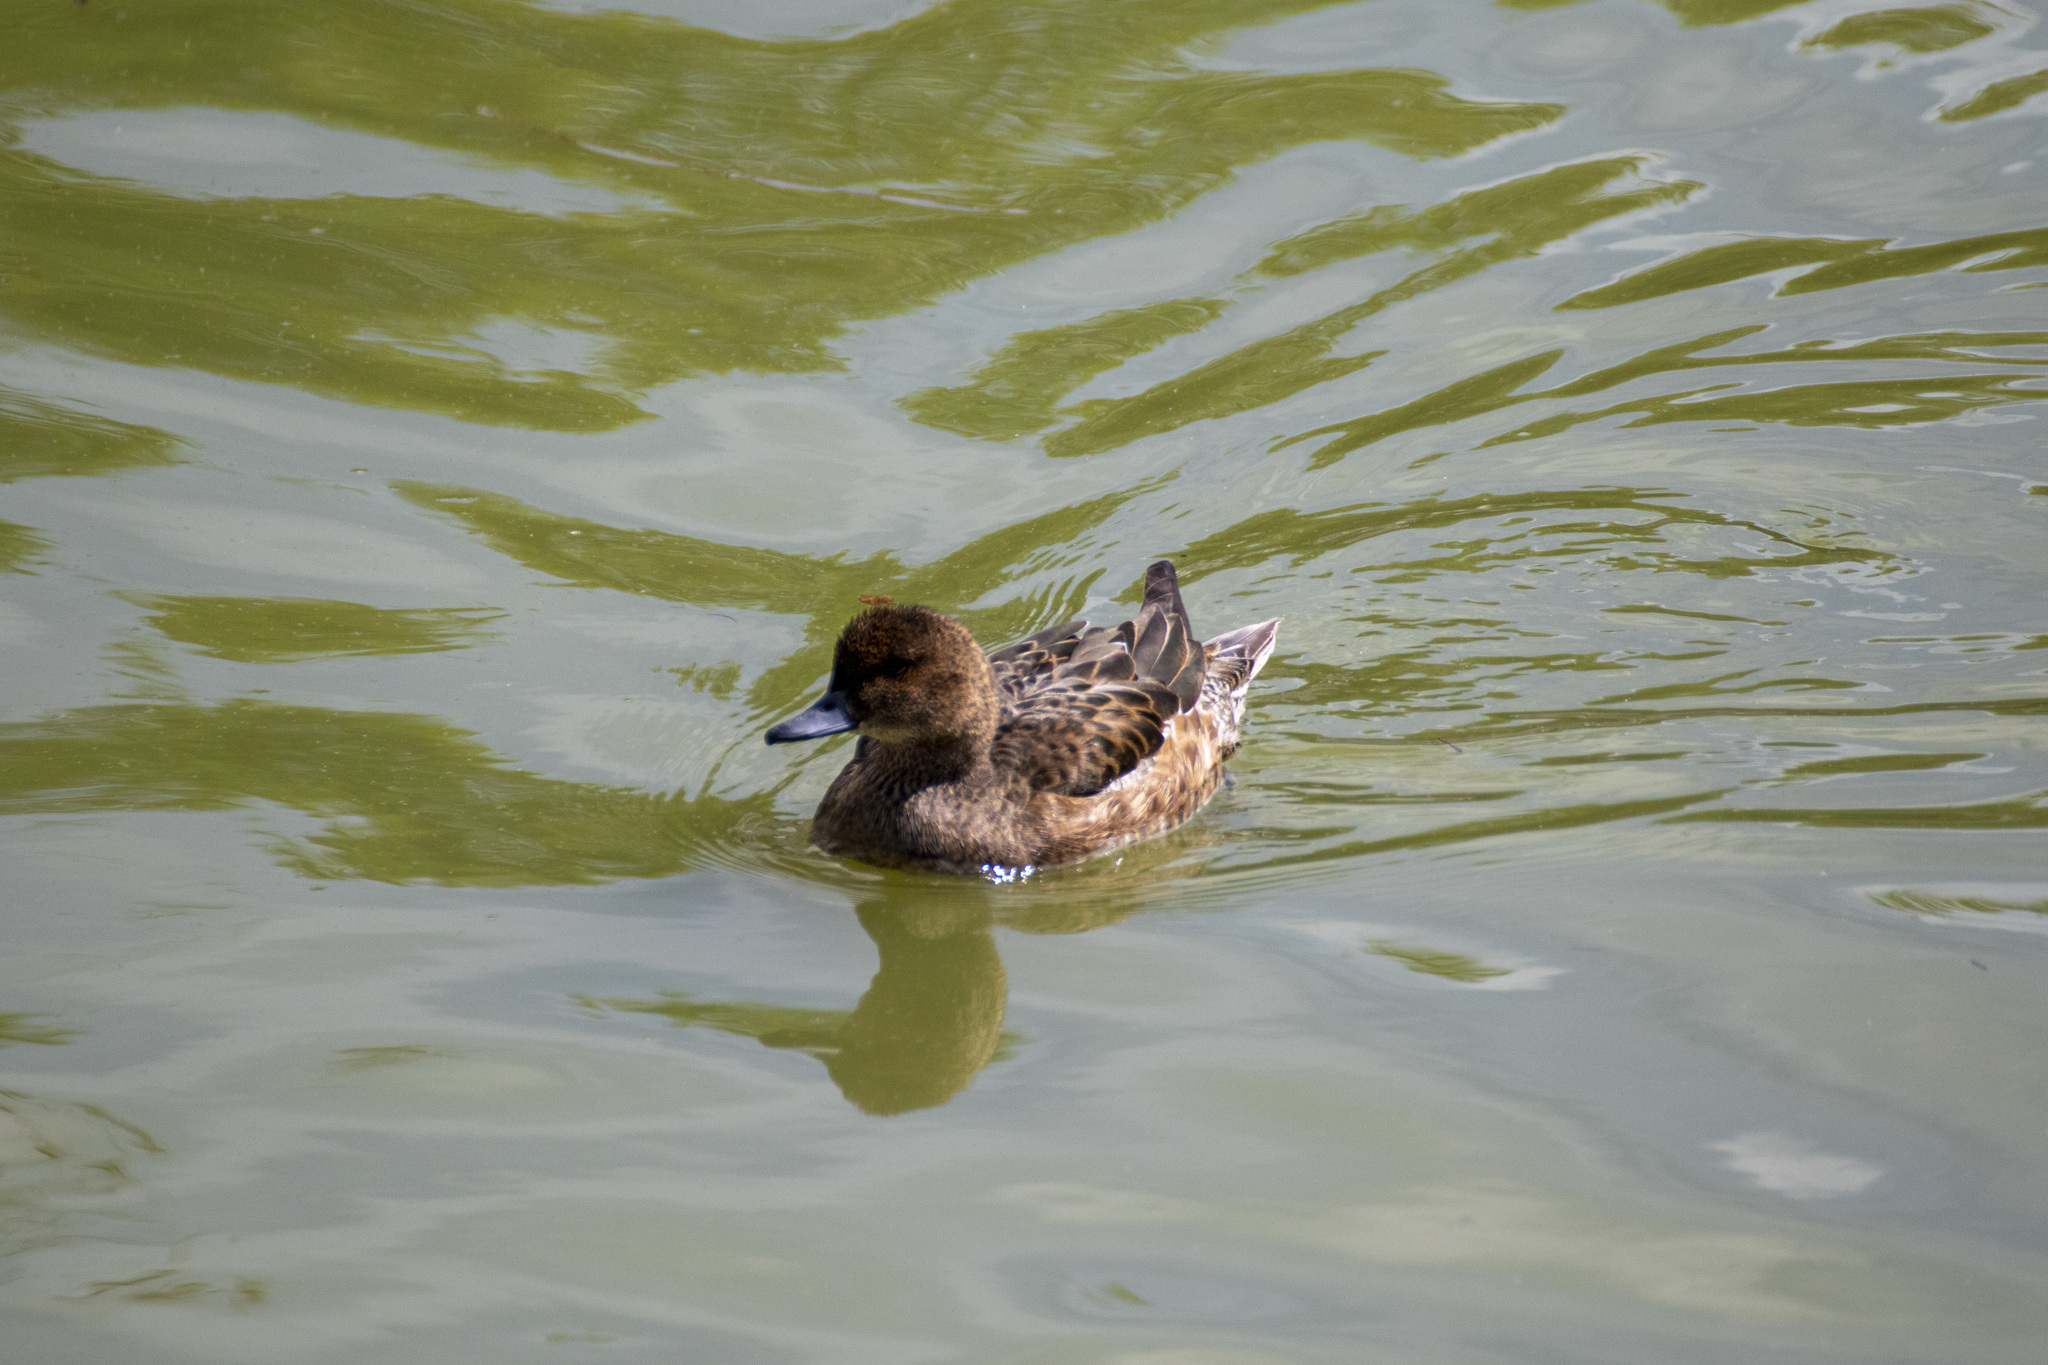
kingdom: Animalia
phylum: Chordata
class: Aves
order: Anseriformes
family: Anatidae
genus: Mareca
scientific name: Mareca penelope
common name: Eurasian wigeon
